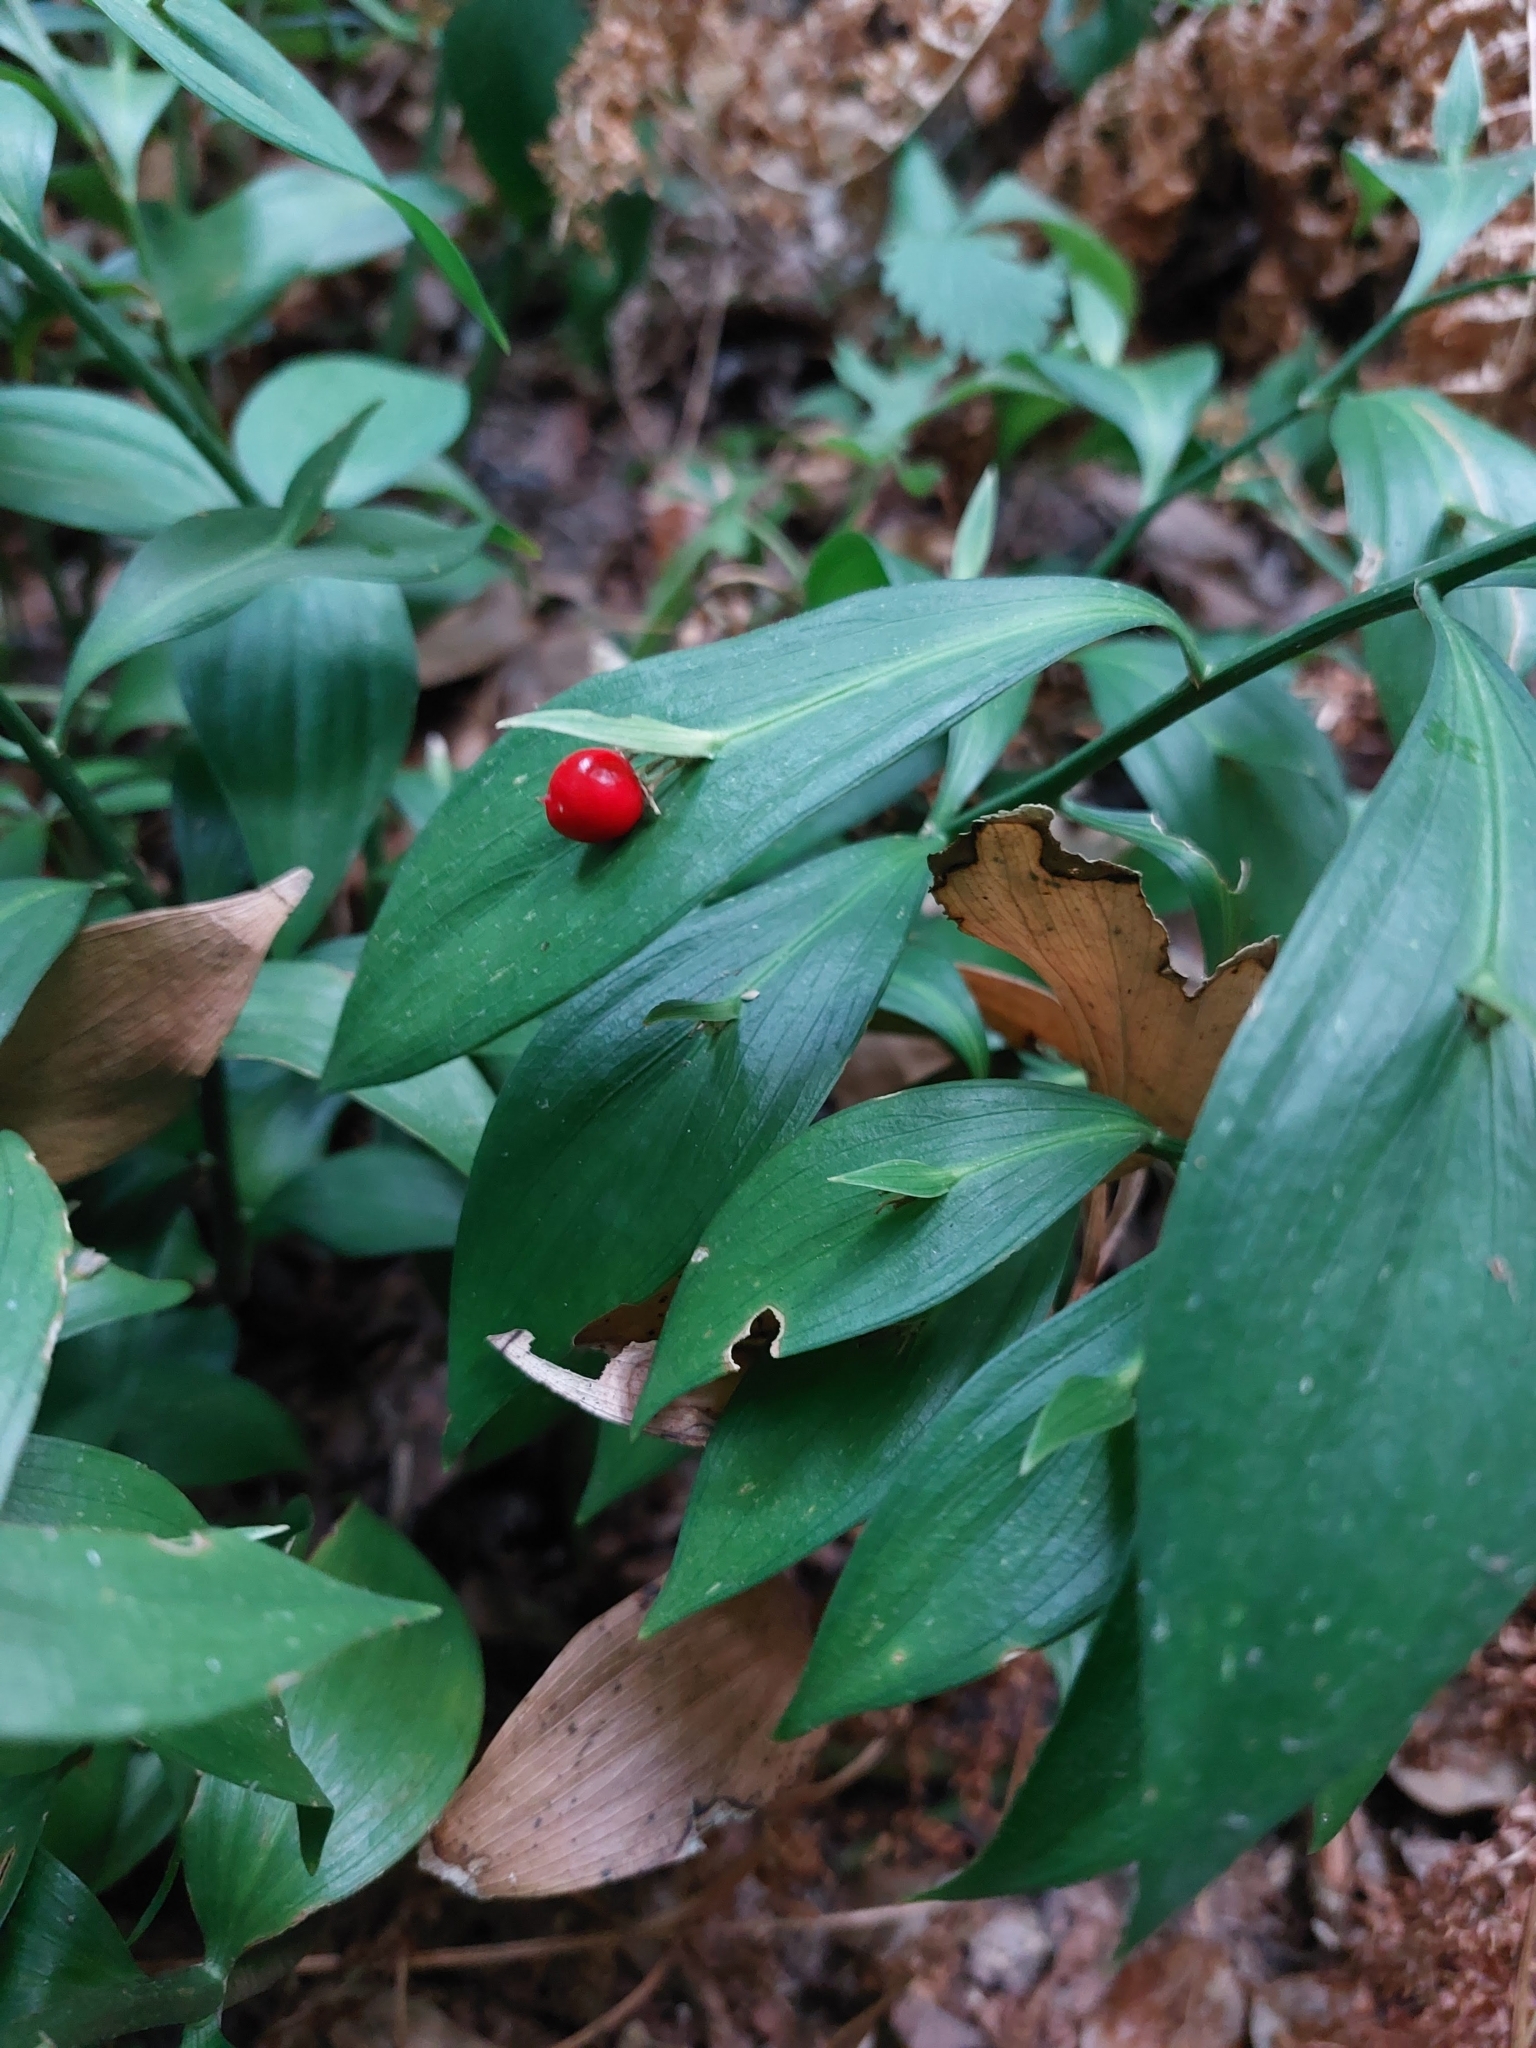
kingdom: Plantae
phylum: Tracheophyta
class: Liliopsida
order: Asparagales
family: Asparagaceae
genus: Ruscus
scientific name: Ruscus hypoglossum
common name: Spineless butcher's-broom
